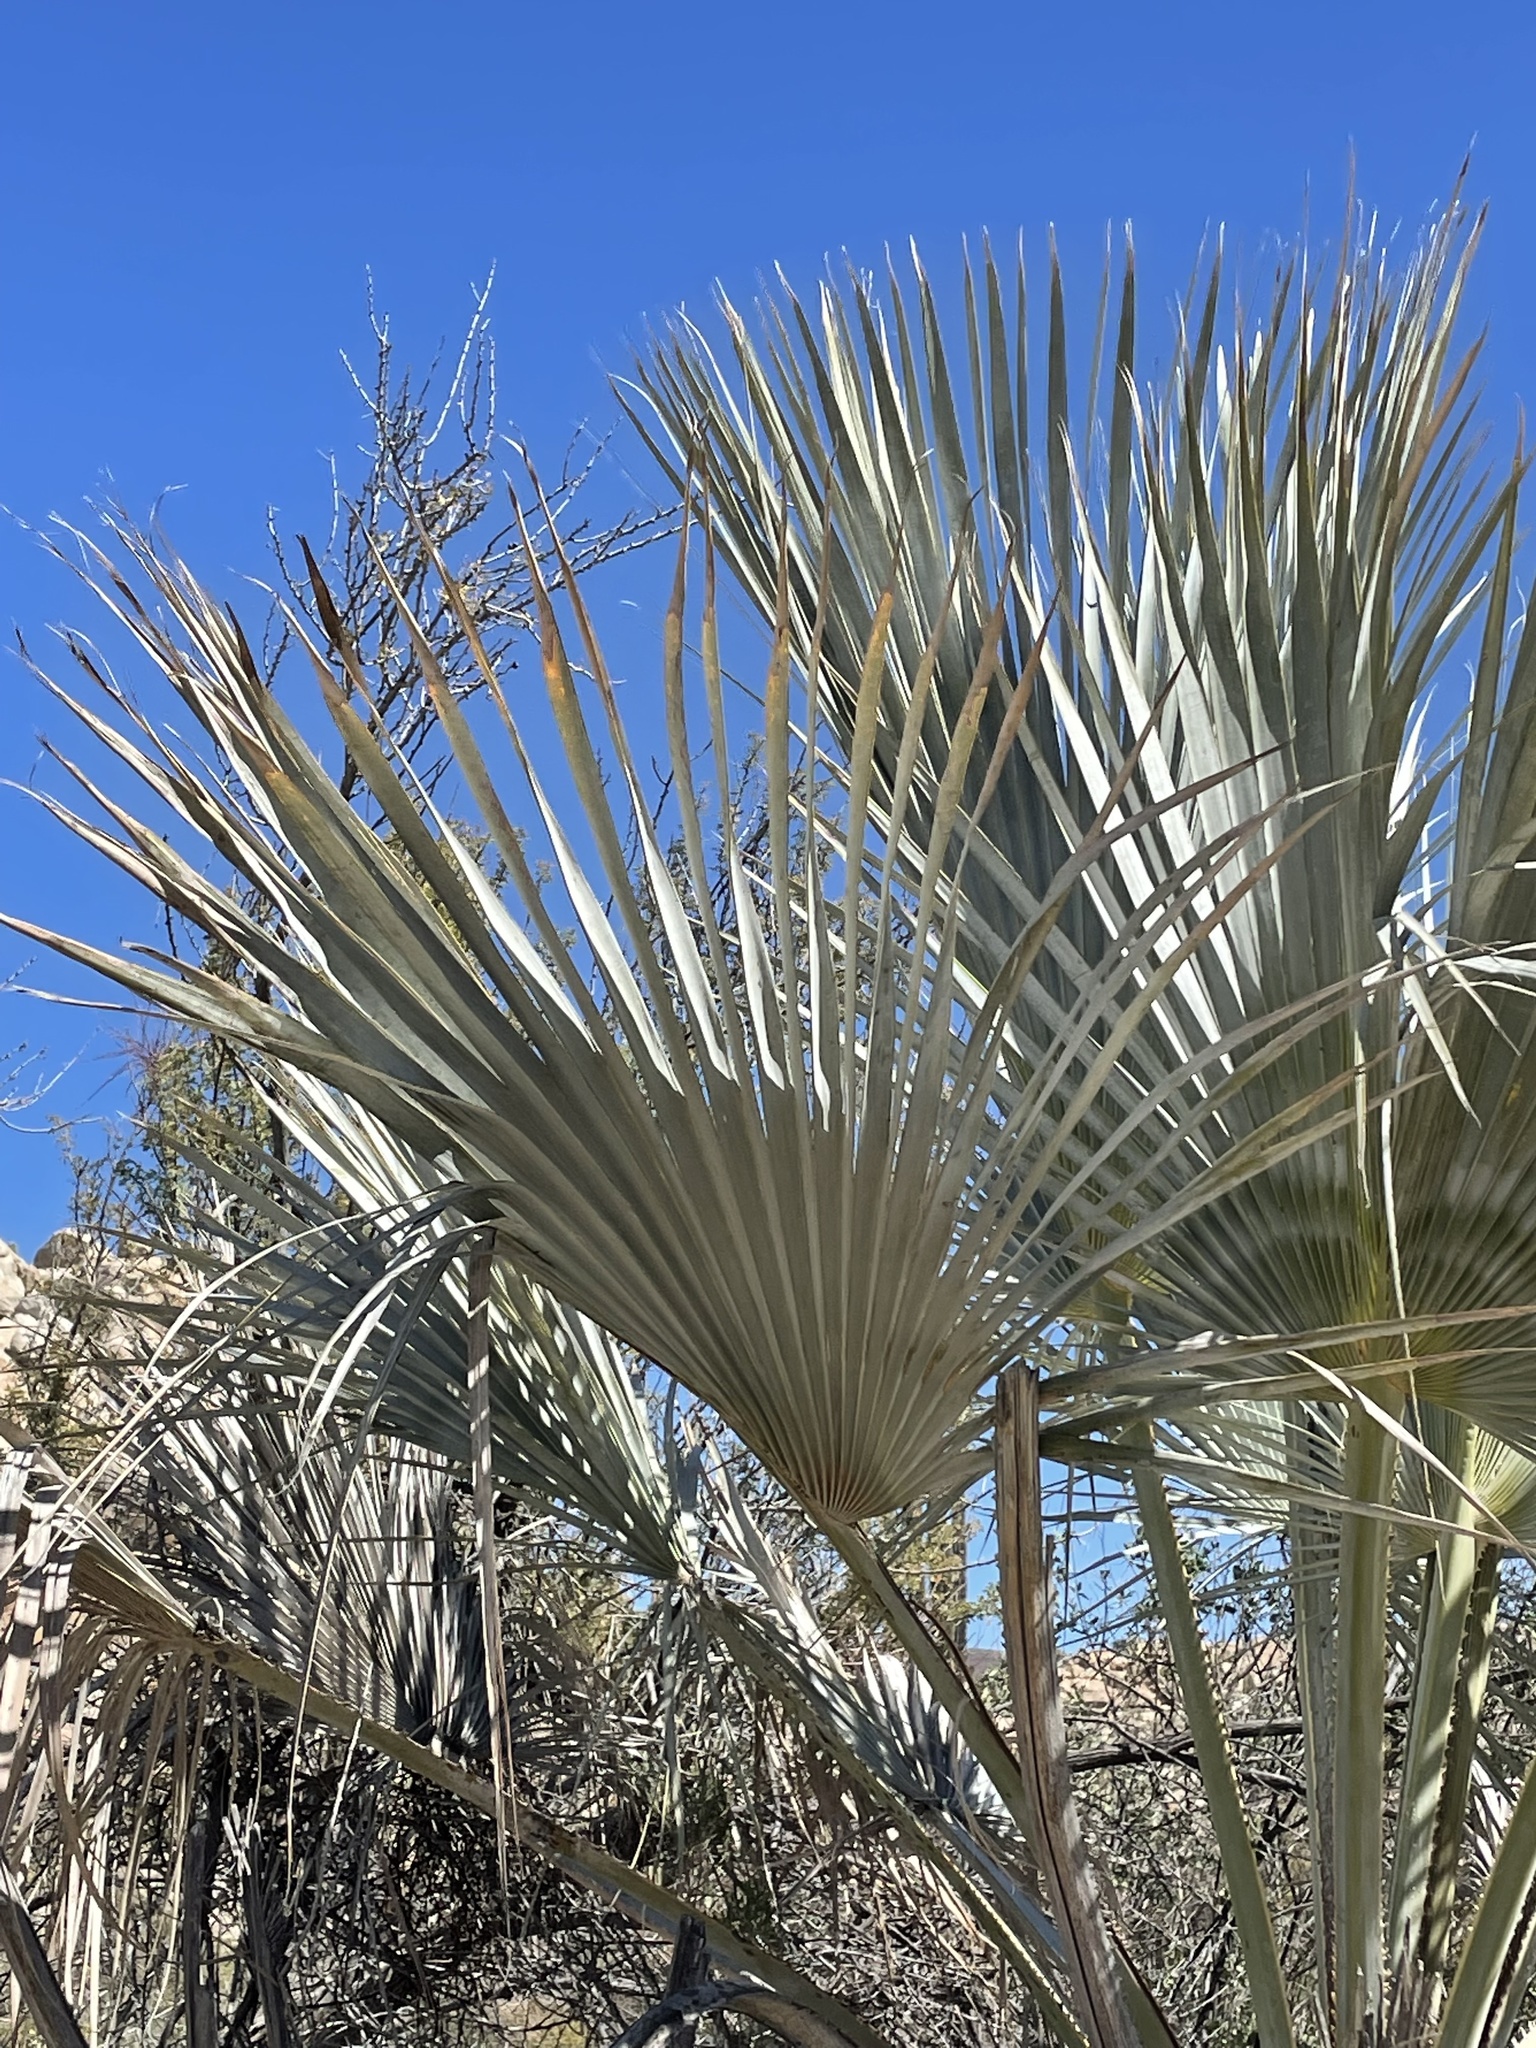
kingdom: Plantae
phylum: Tracheophyta
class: Liliopsida
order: Arecales
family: Arecaceae
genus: Brahea
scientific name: Brahea armata
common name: Mexican blue palm
